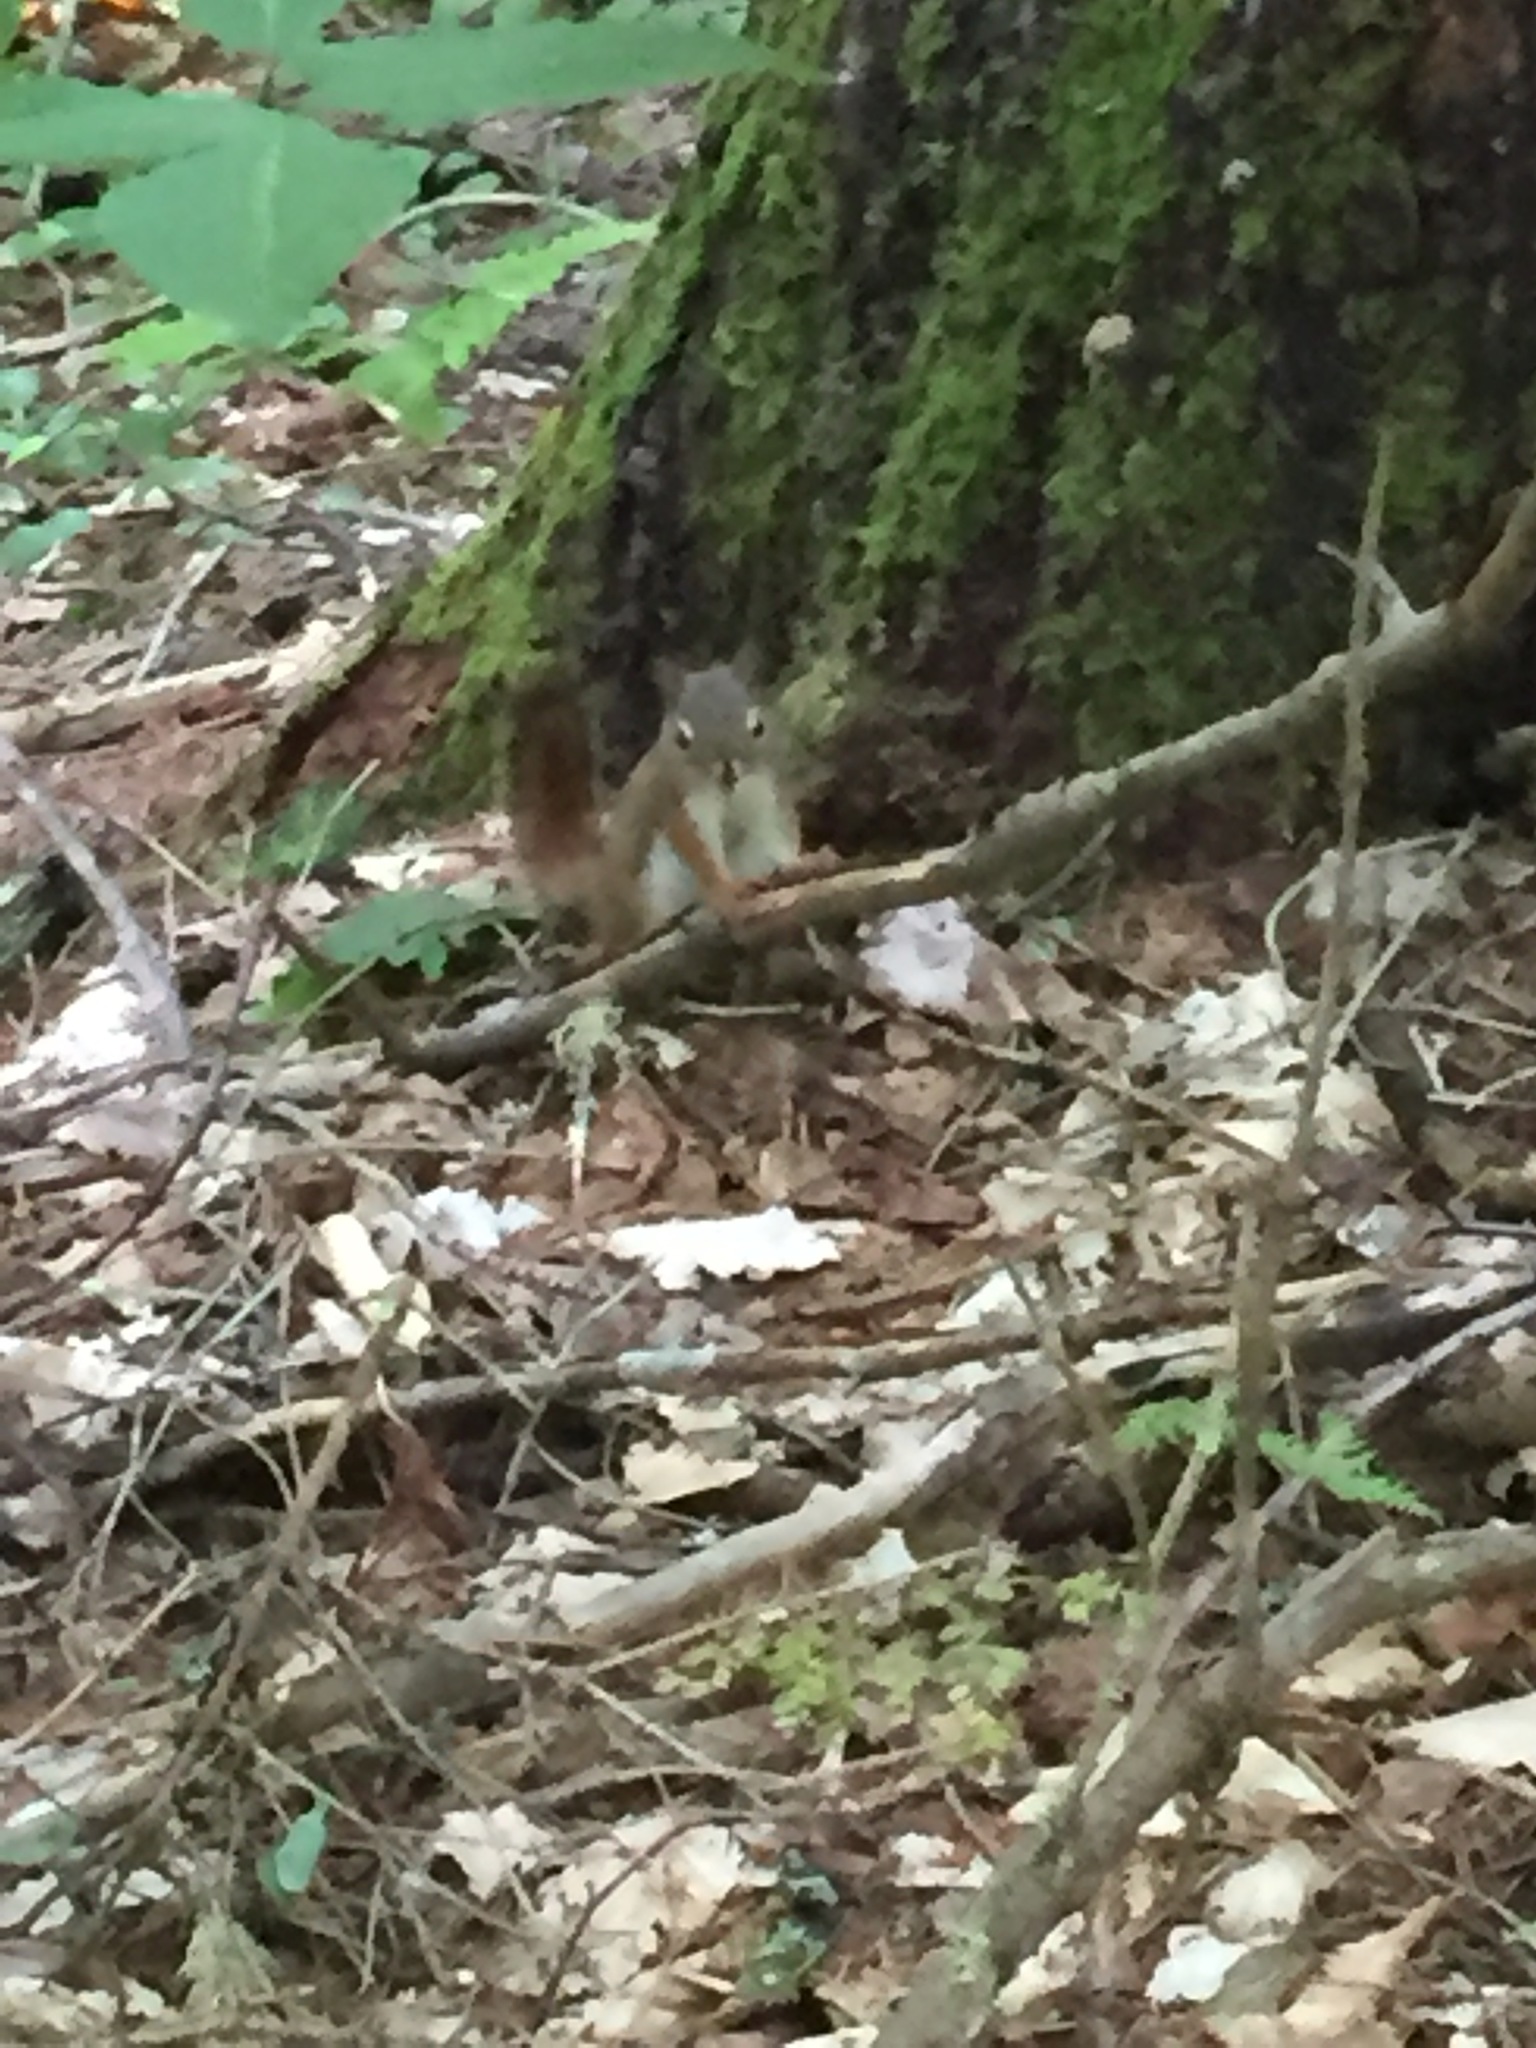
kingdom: Animalia
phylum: Chordata
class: Mammalia
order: Rodentia
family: Sciuridae
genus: Tamiasciurus
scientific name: Tamiasciurus hudsonicus
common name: Red squirrel
